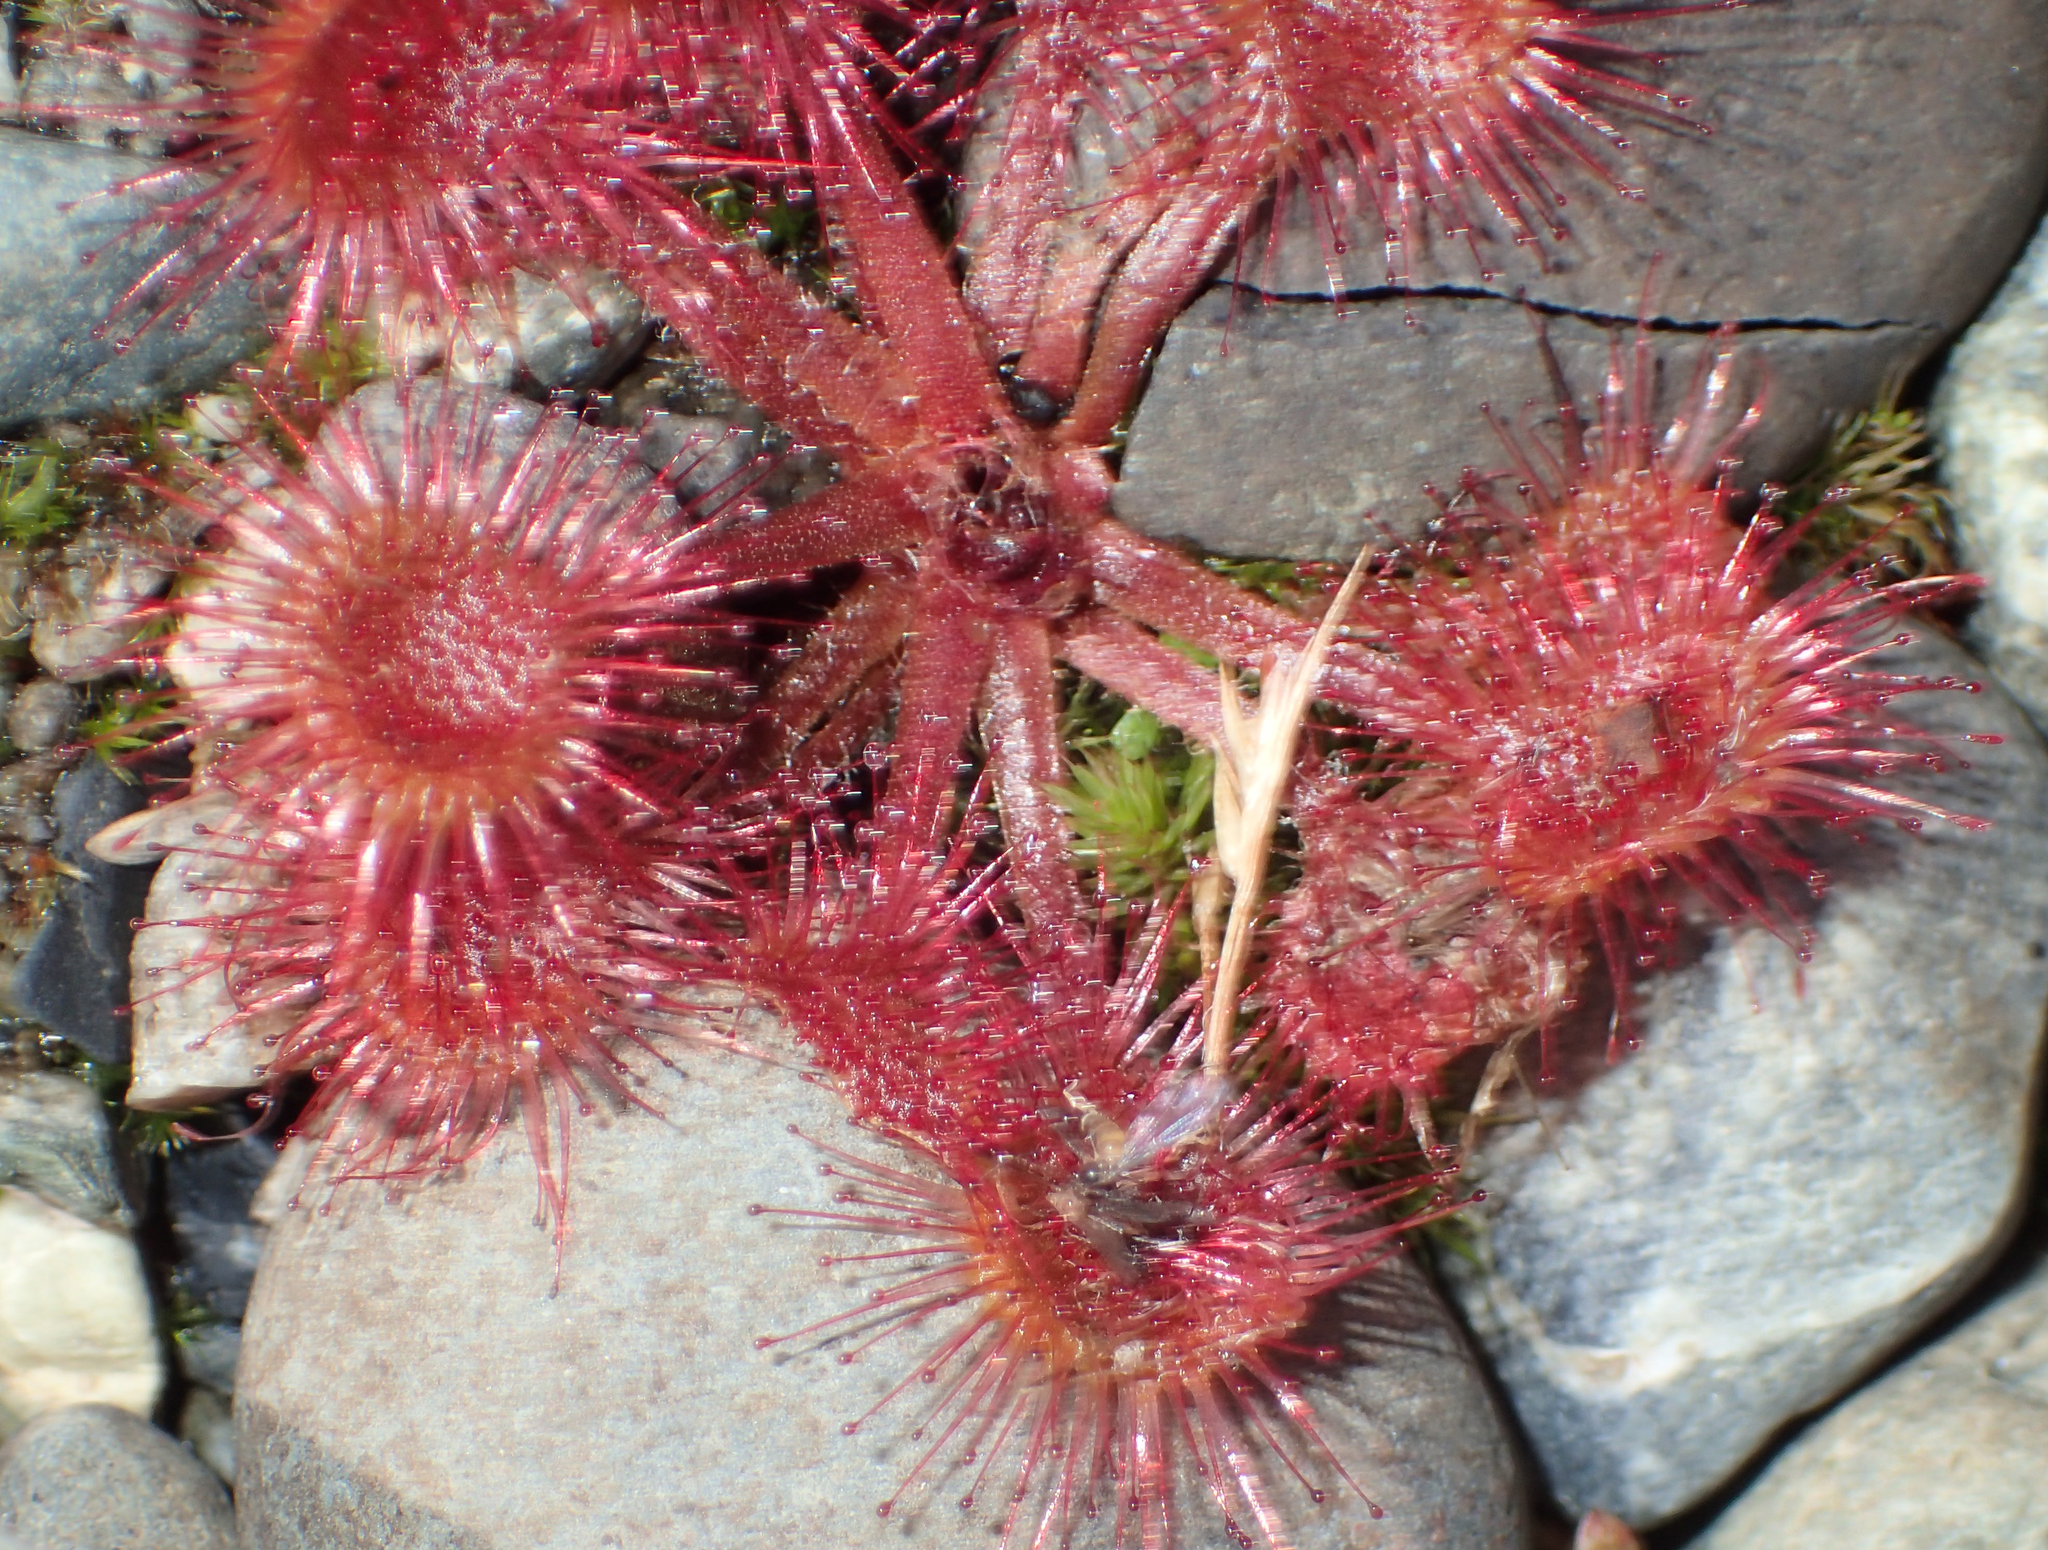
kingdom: Plantae
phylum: Tracheophyta
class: Magnoliopsida
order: Caryophyllales
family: Droseraceae
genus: Drosera
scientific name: Drosera rotundifolia
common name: Round-leaved sundew
